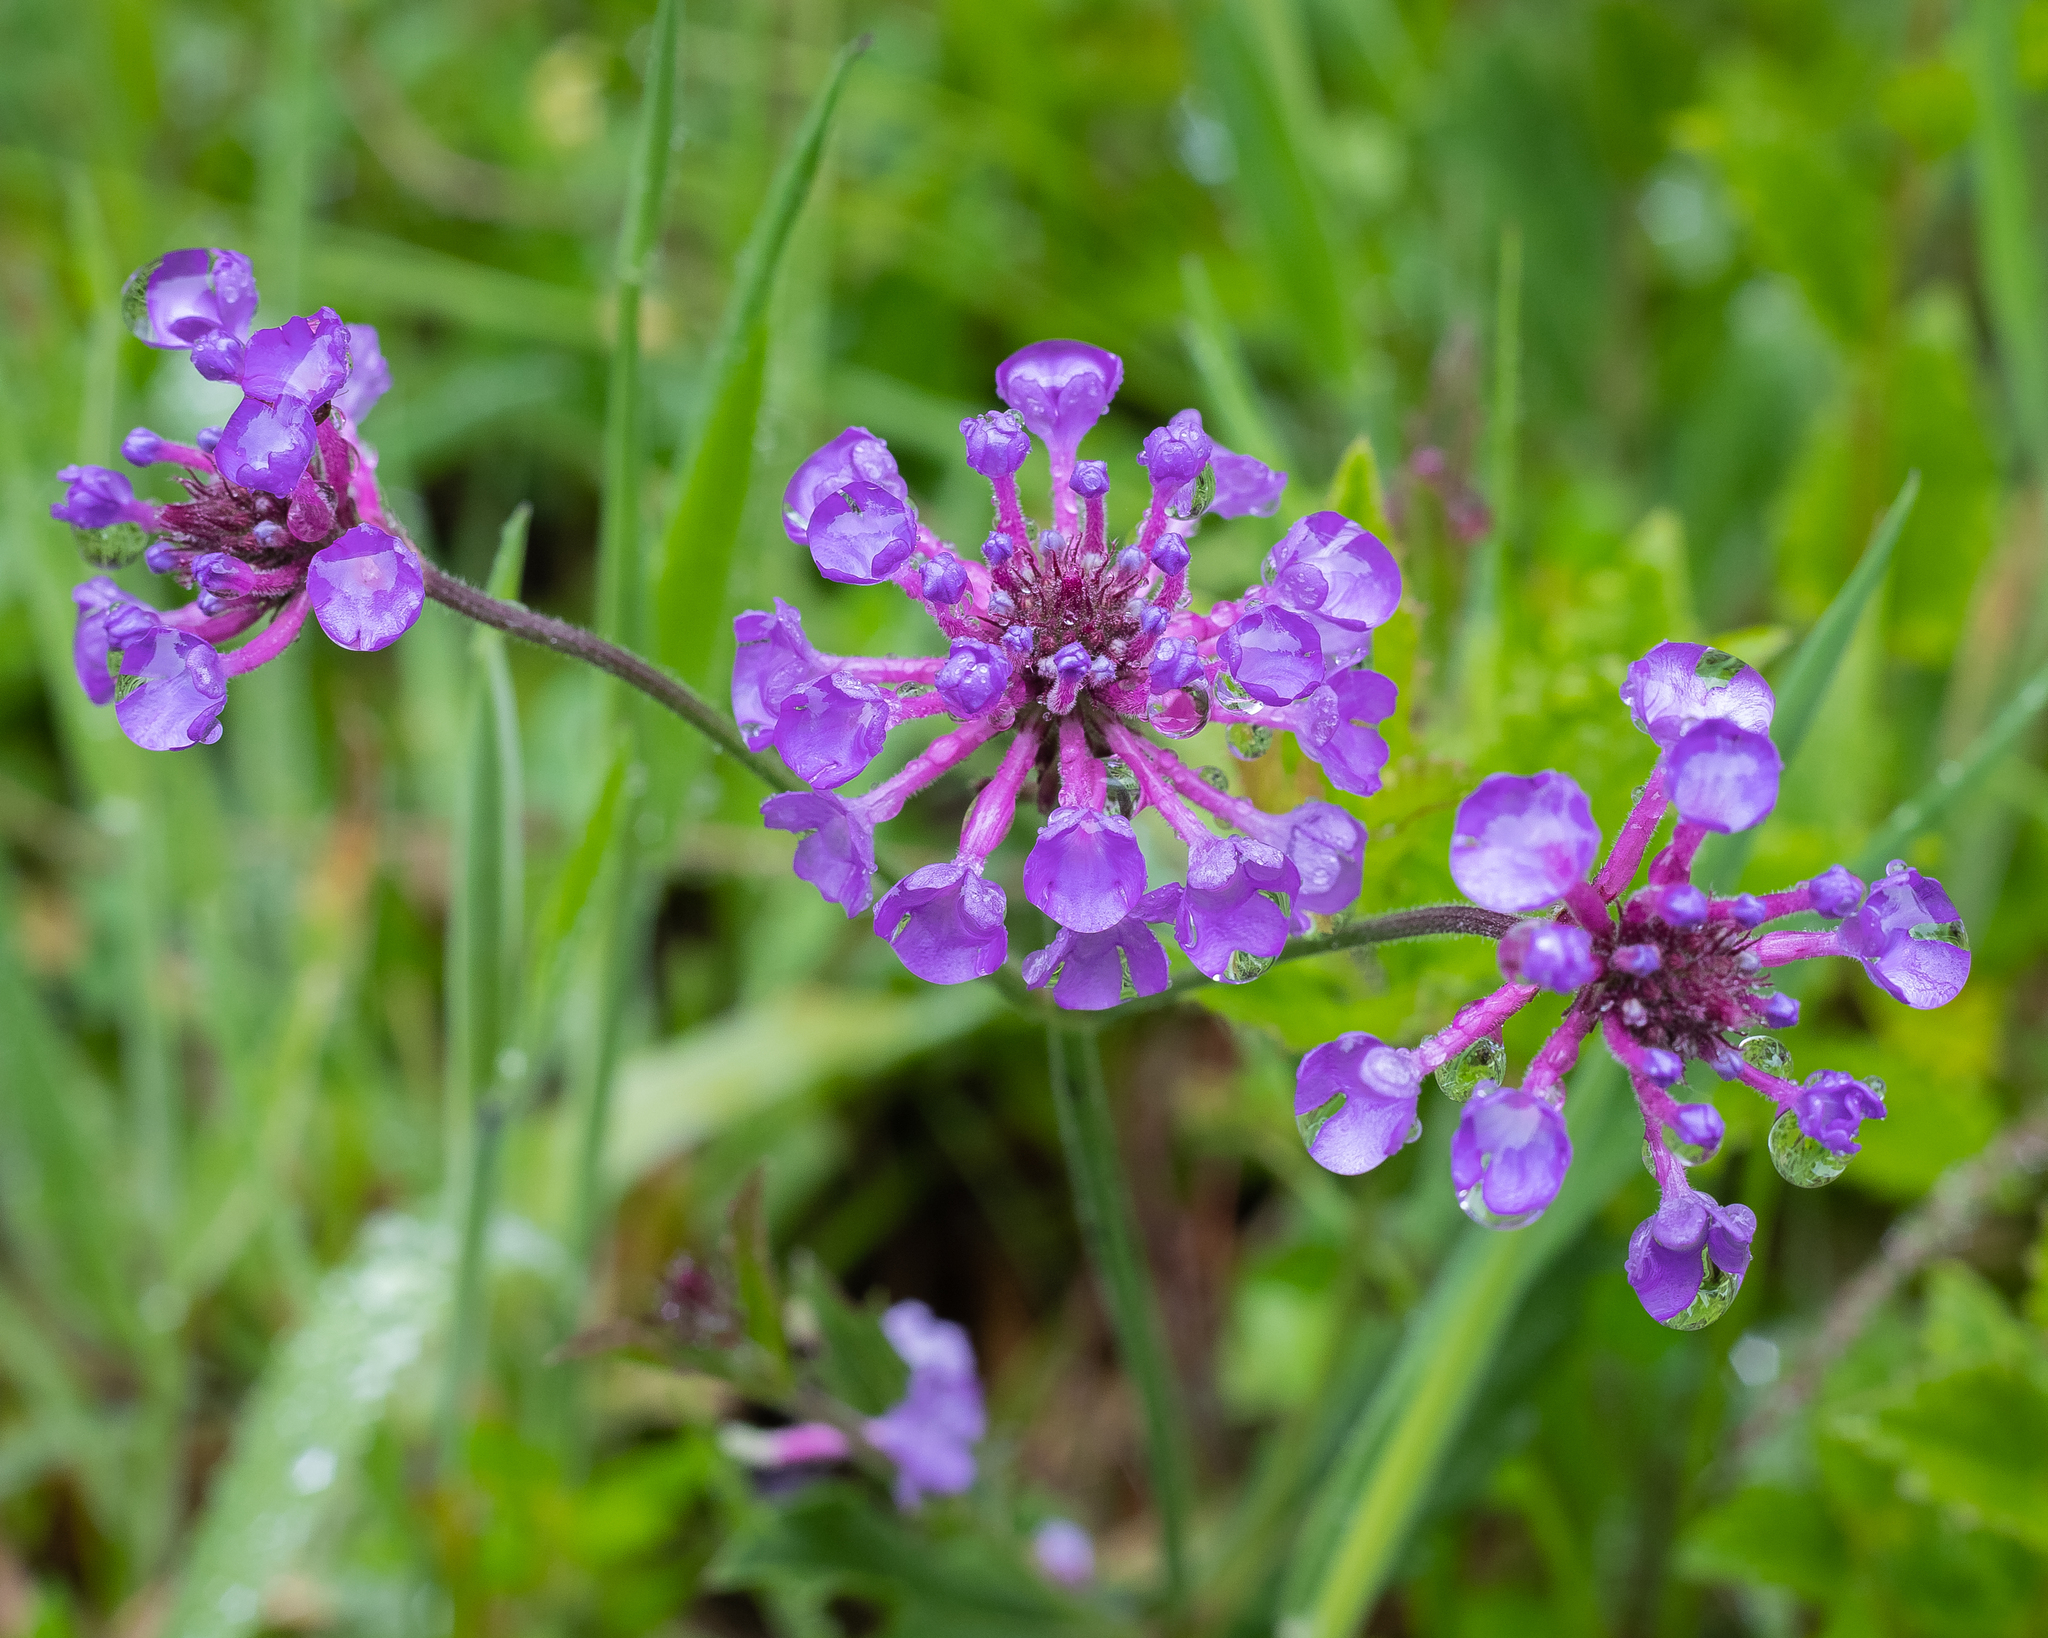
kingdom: Plantae
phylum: Tracheophyta
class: Magnoliopsida
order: Lamiales
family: Verbenaceae
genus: Verbena
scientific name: Verbena rigida
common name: Slender vervain
